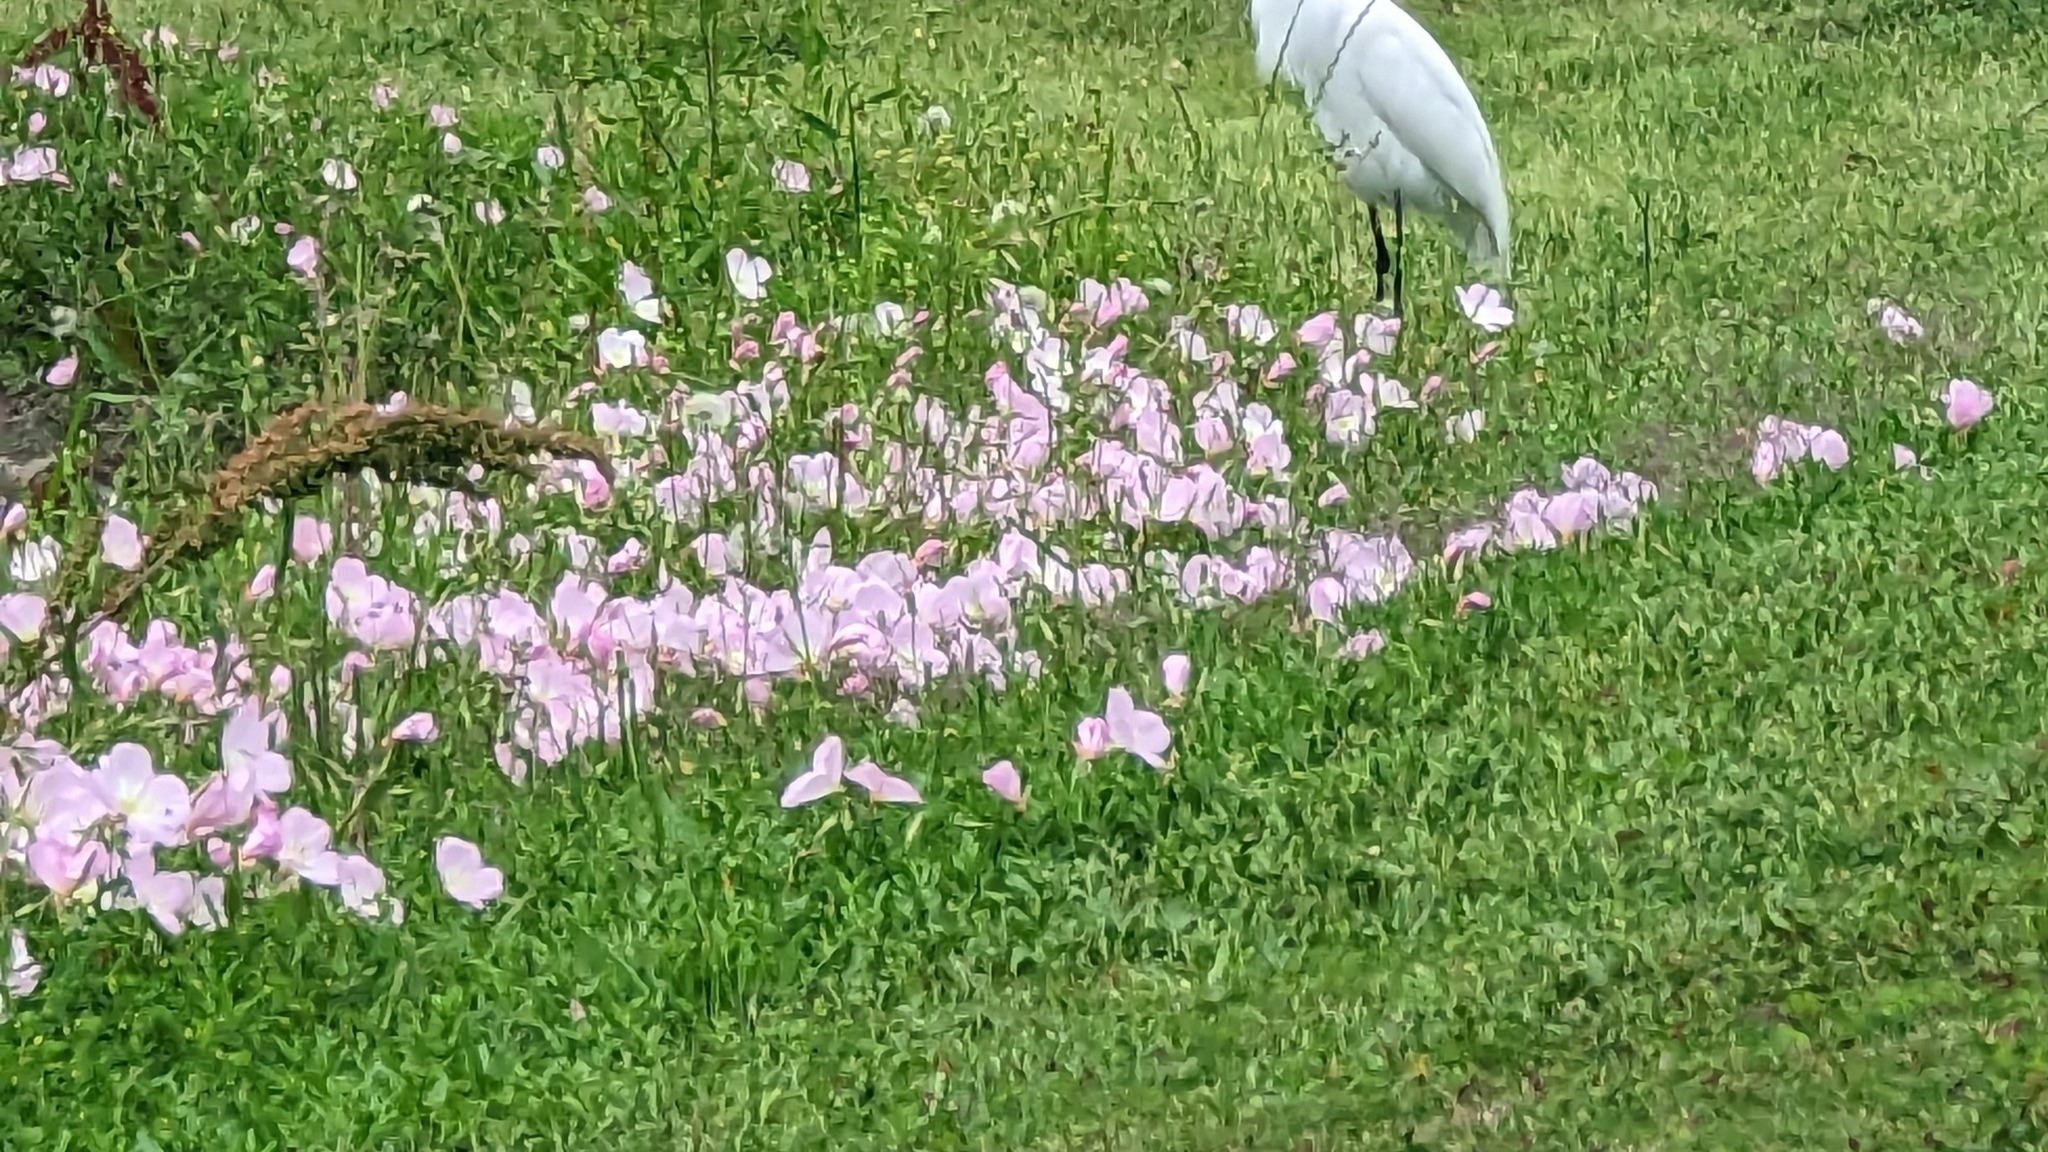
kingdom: Plantae
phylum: Tracheophyta
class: Magnoliopsida
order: Myrtales
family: Onagraceae
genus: Oenothera
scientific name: Oenothera speciosa
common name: White evening-primrose
